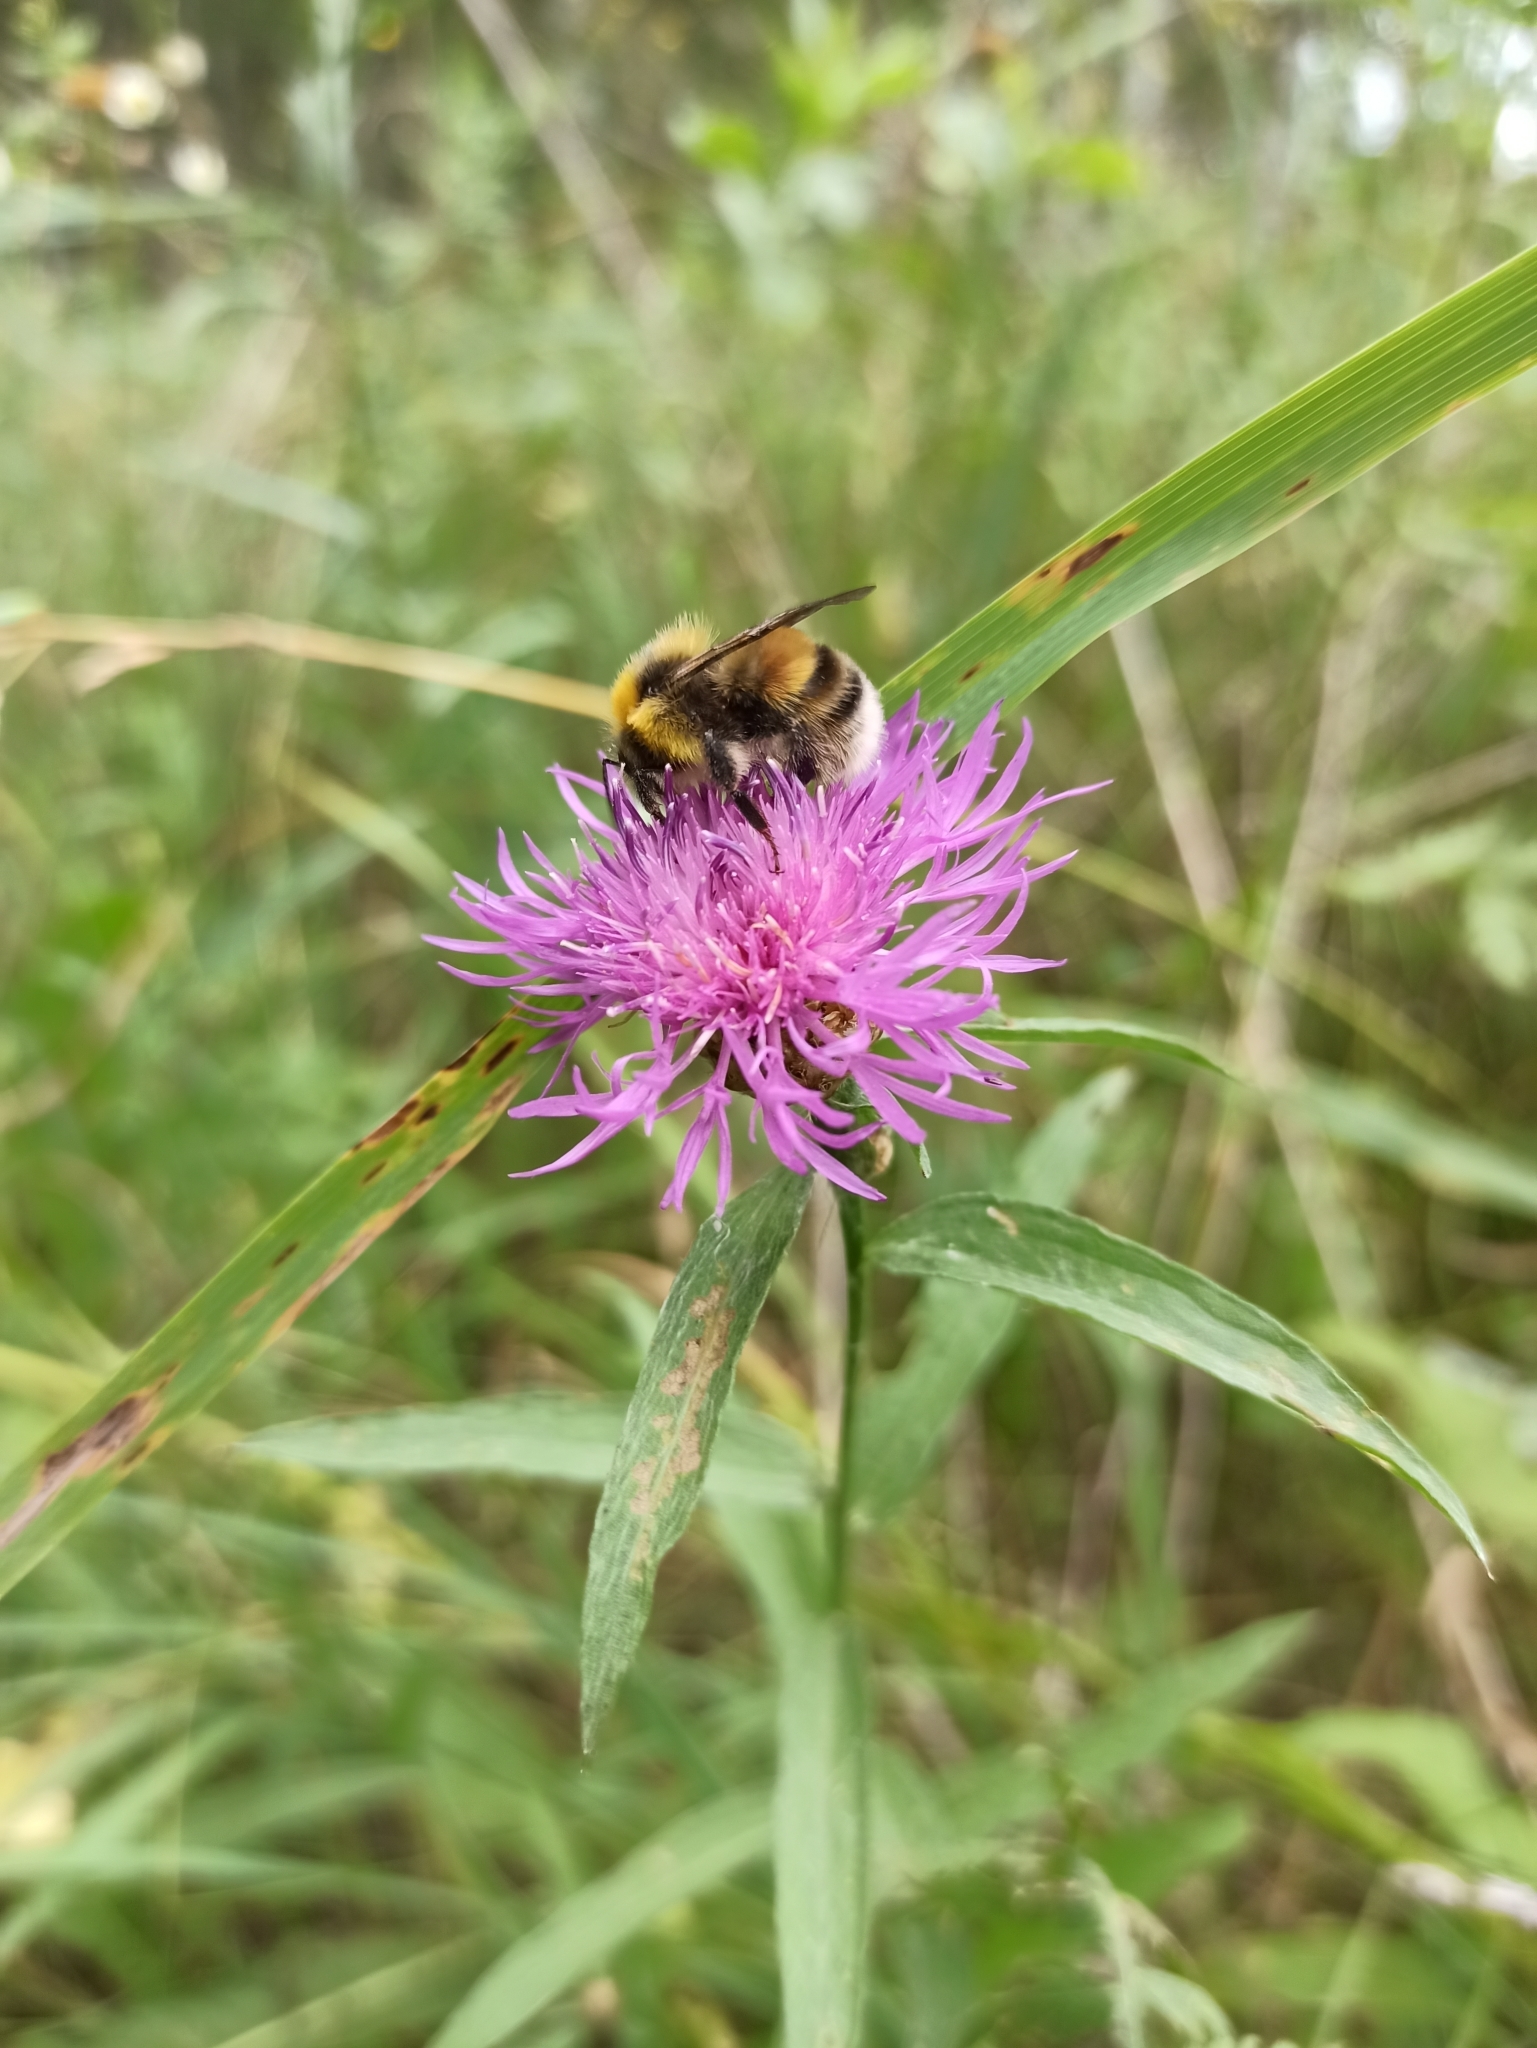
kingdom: Plantae
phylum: Tracheophyta
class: Magnoliopsida
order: Asterales
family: Asteraceae
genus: Centaurea
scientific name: Centaurea jacea
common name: Brown knapweed
